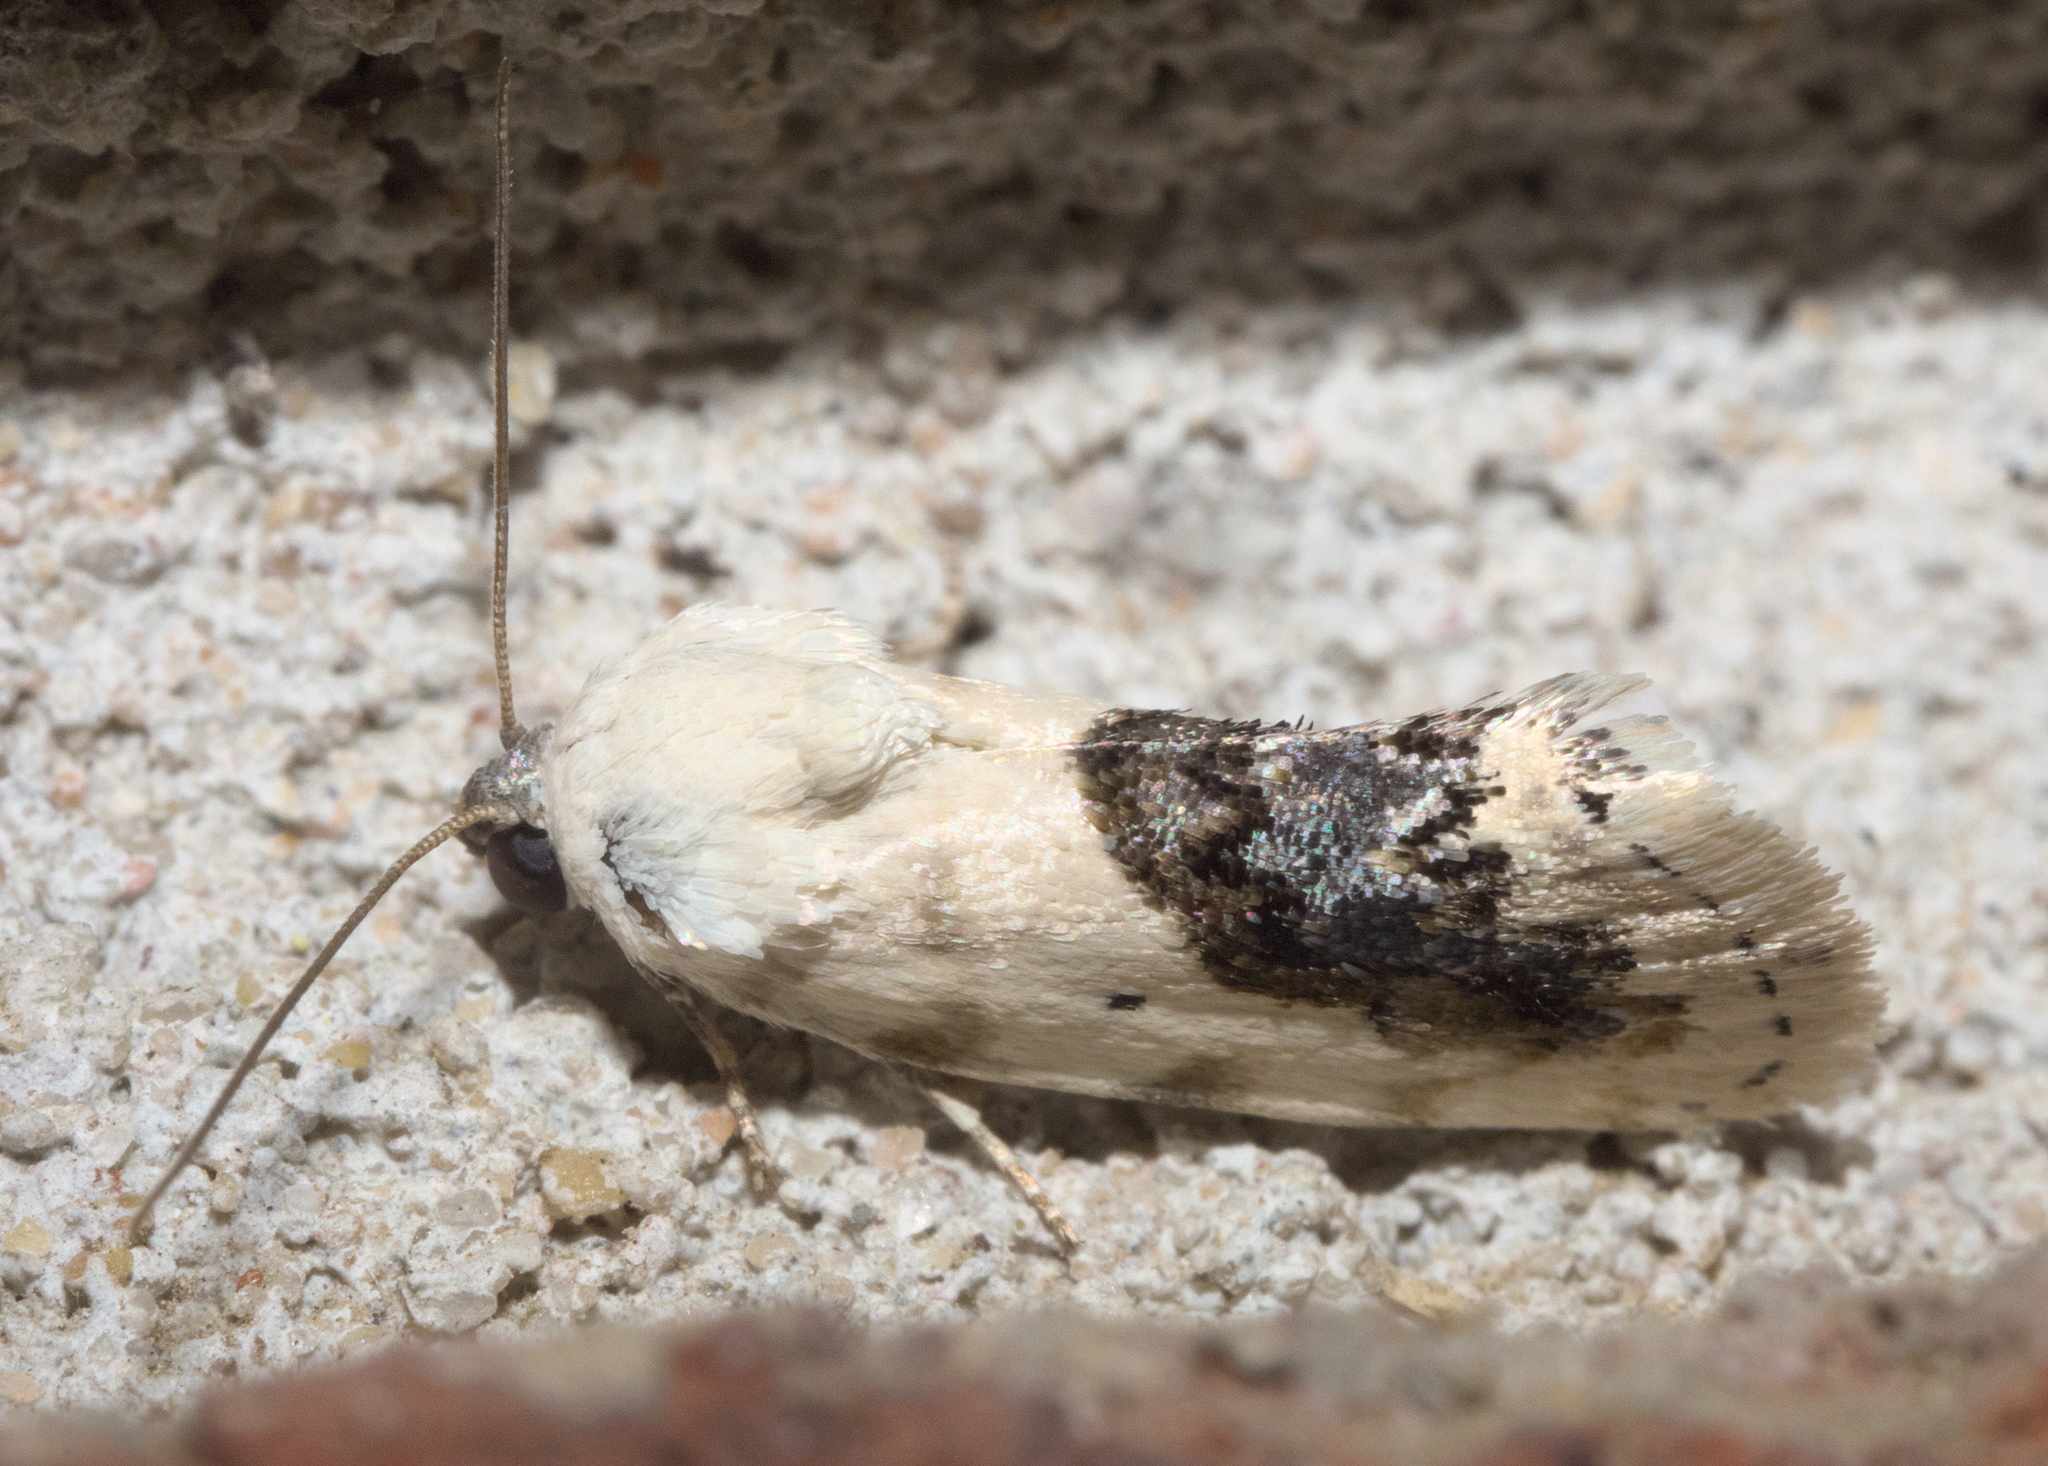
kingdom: Animalia
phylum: Arthropoda
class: Insecta
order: Lepidoptera
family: Noctuidae
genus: Acontia
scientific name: Acontia erastrioides
